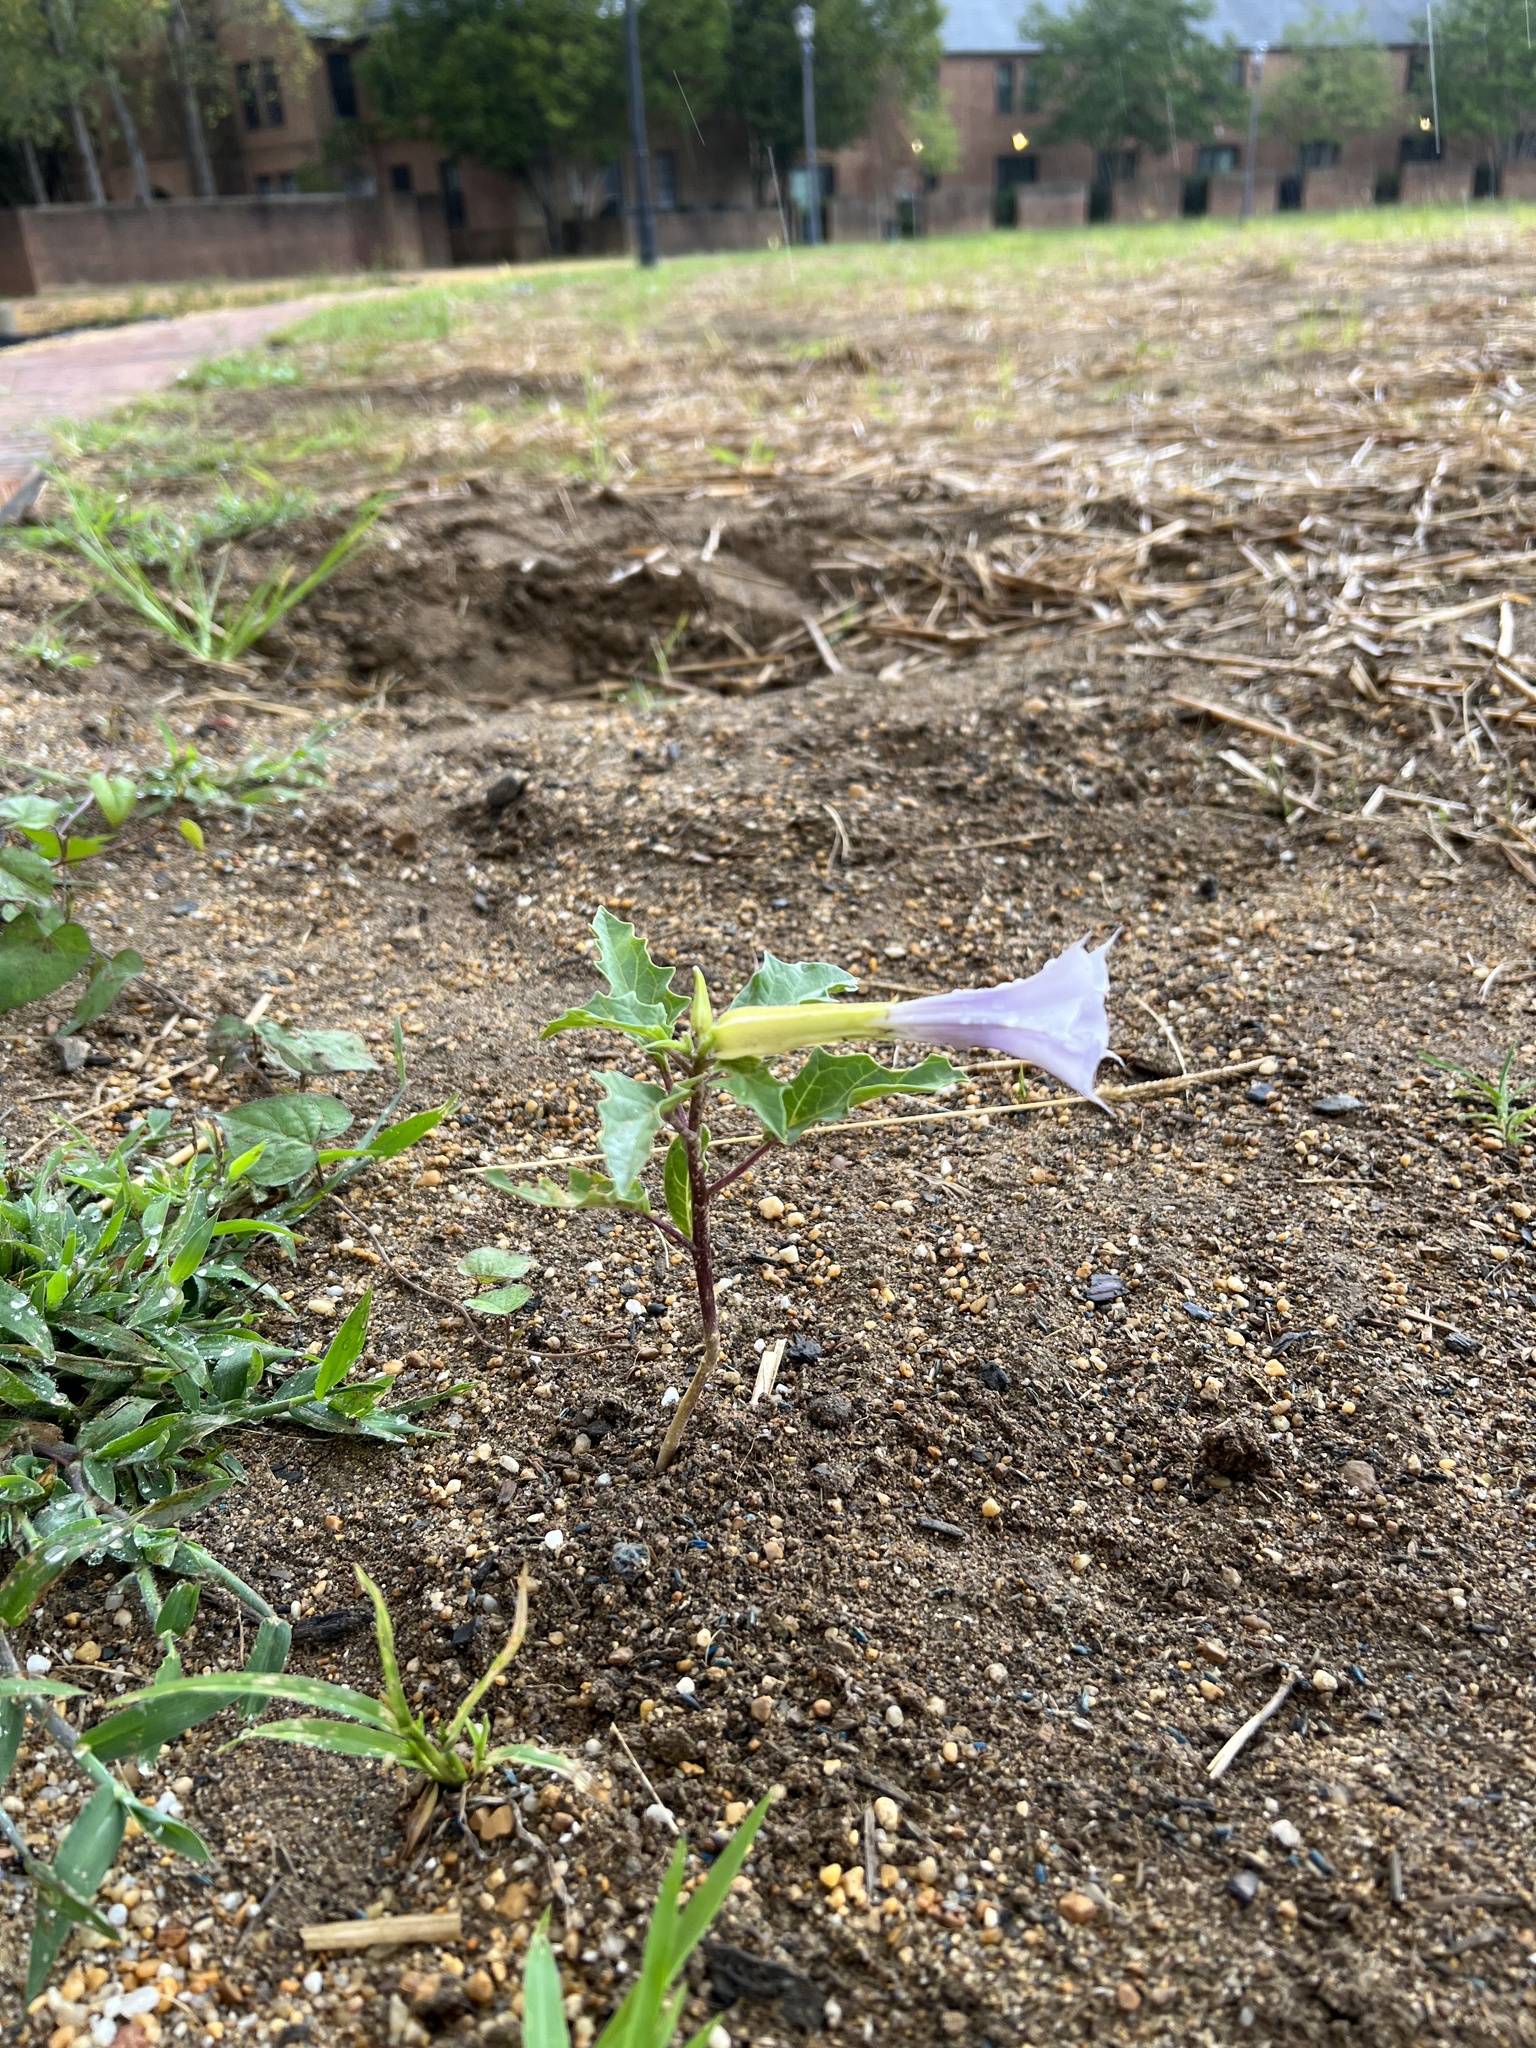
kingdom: Plantae
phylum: Tracheophyta
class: Magnoliopsida
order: Solanales
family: Solanaceae
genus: Datura
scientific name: Datura stramonium
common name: Thorn-apple
